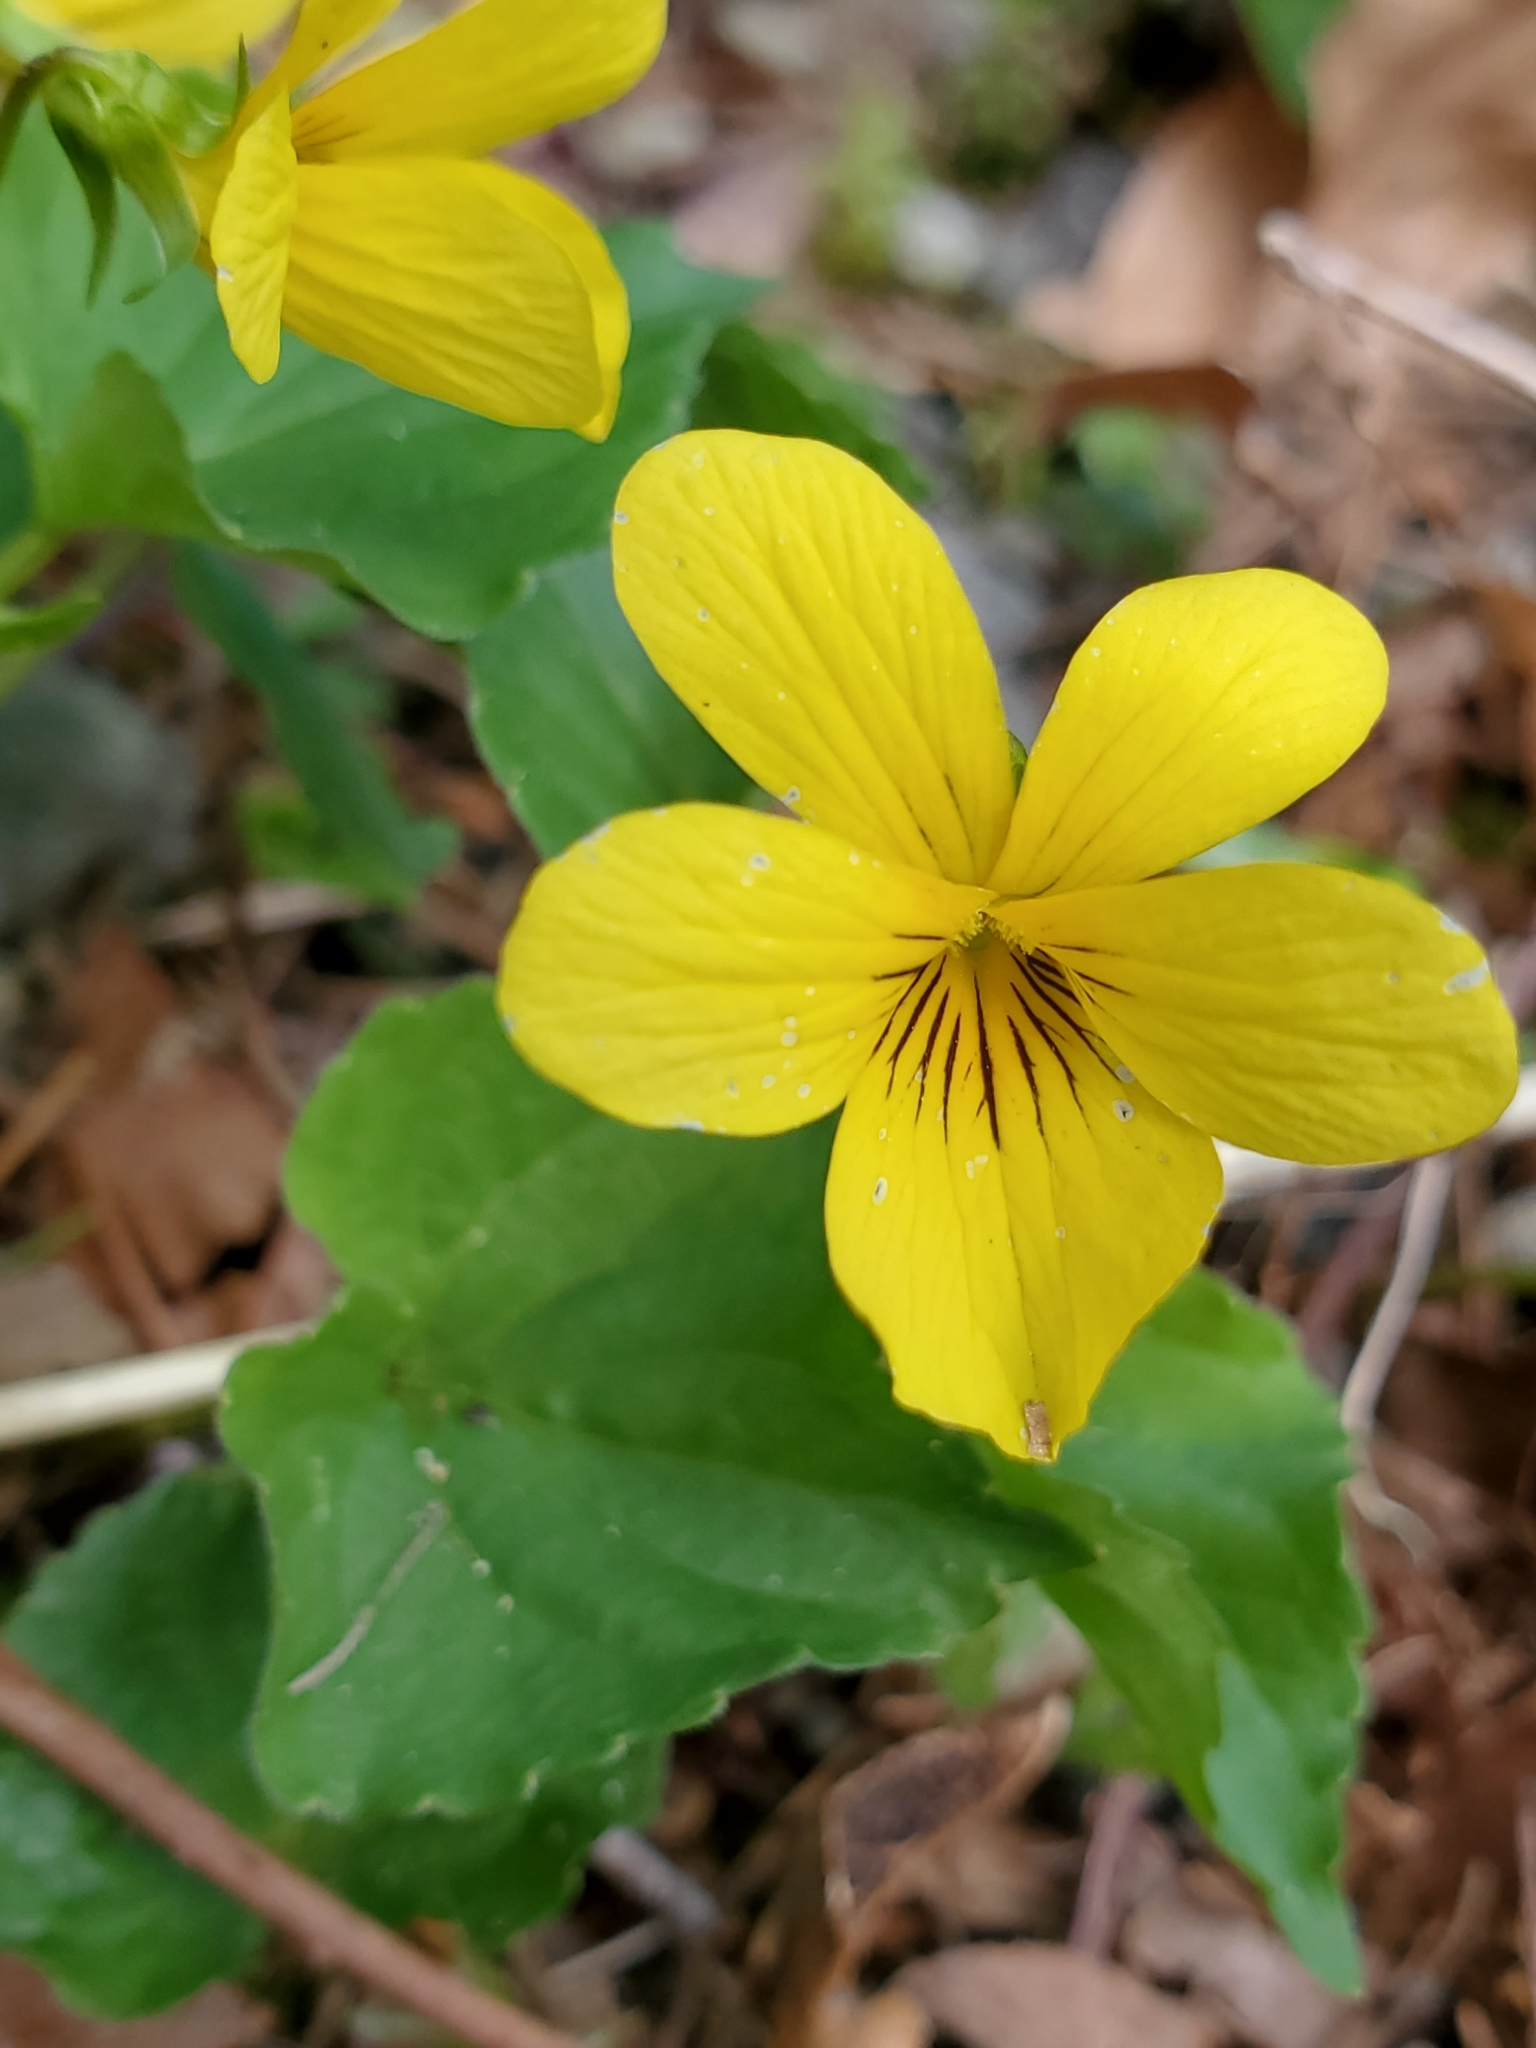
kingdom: Plantae
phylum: Tracheophyta
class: Magnoliopsida
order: Malpighiales
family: Violaceae
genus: Viola
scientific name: Viola glabella
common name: Stream violet
